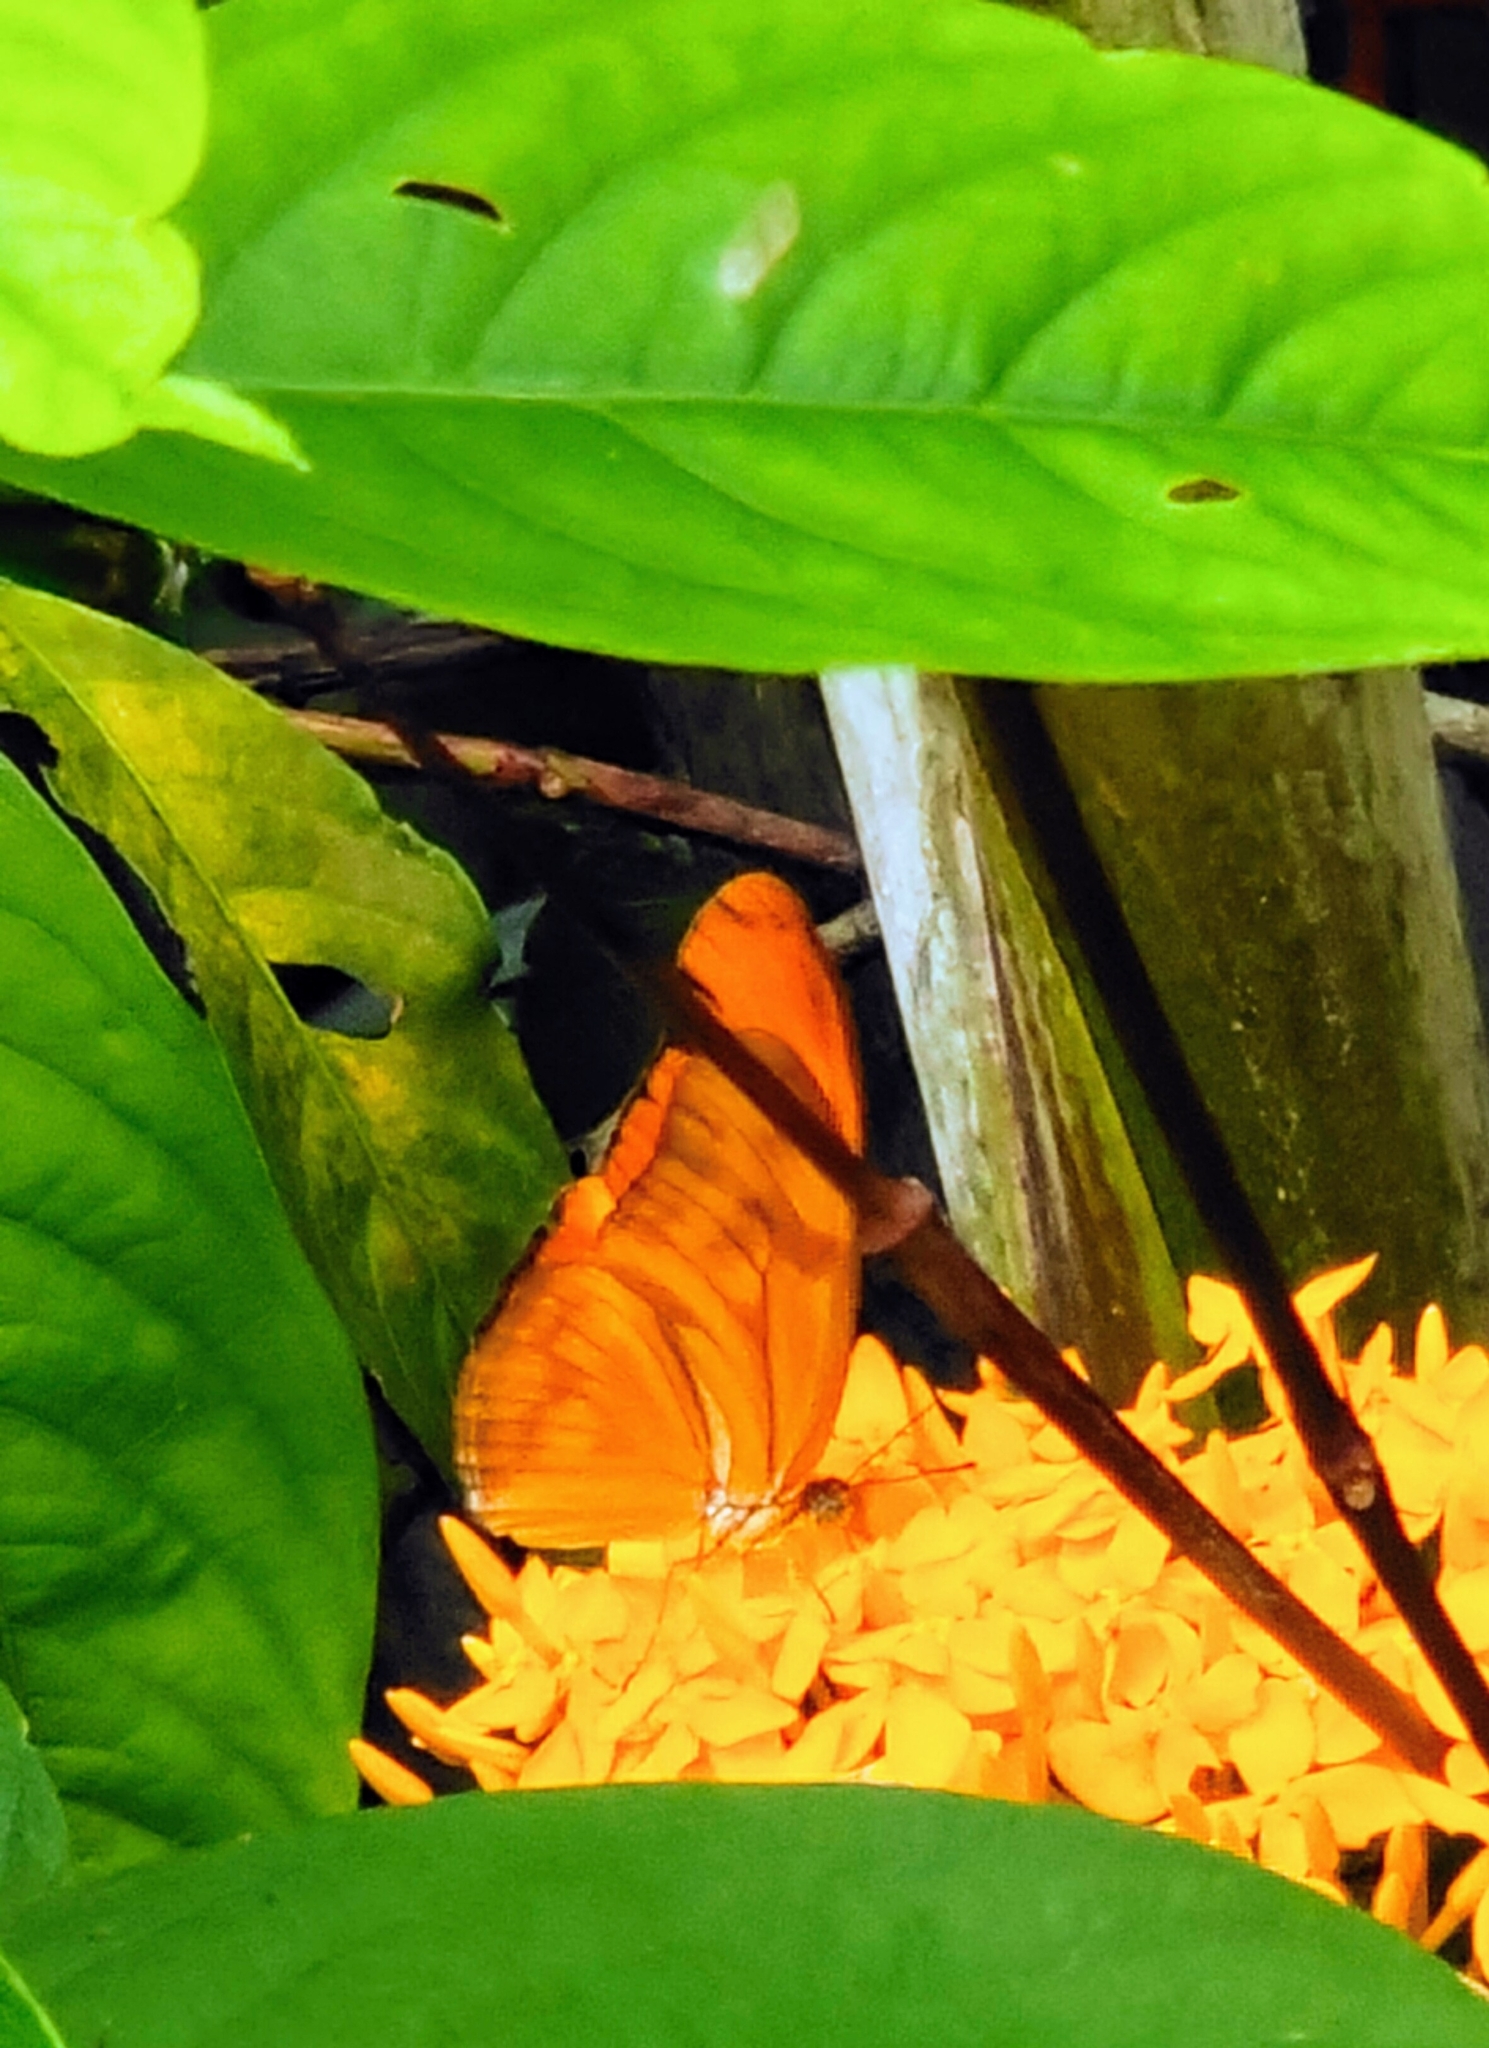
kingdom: Animalia
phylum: Arthropoda
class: Insecta
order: Lepidoptera
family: Nymphalidae
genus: Dryas
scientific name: Dryas iulia
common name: Flambeau
